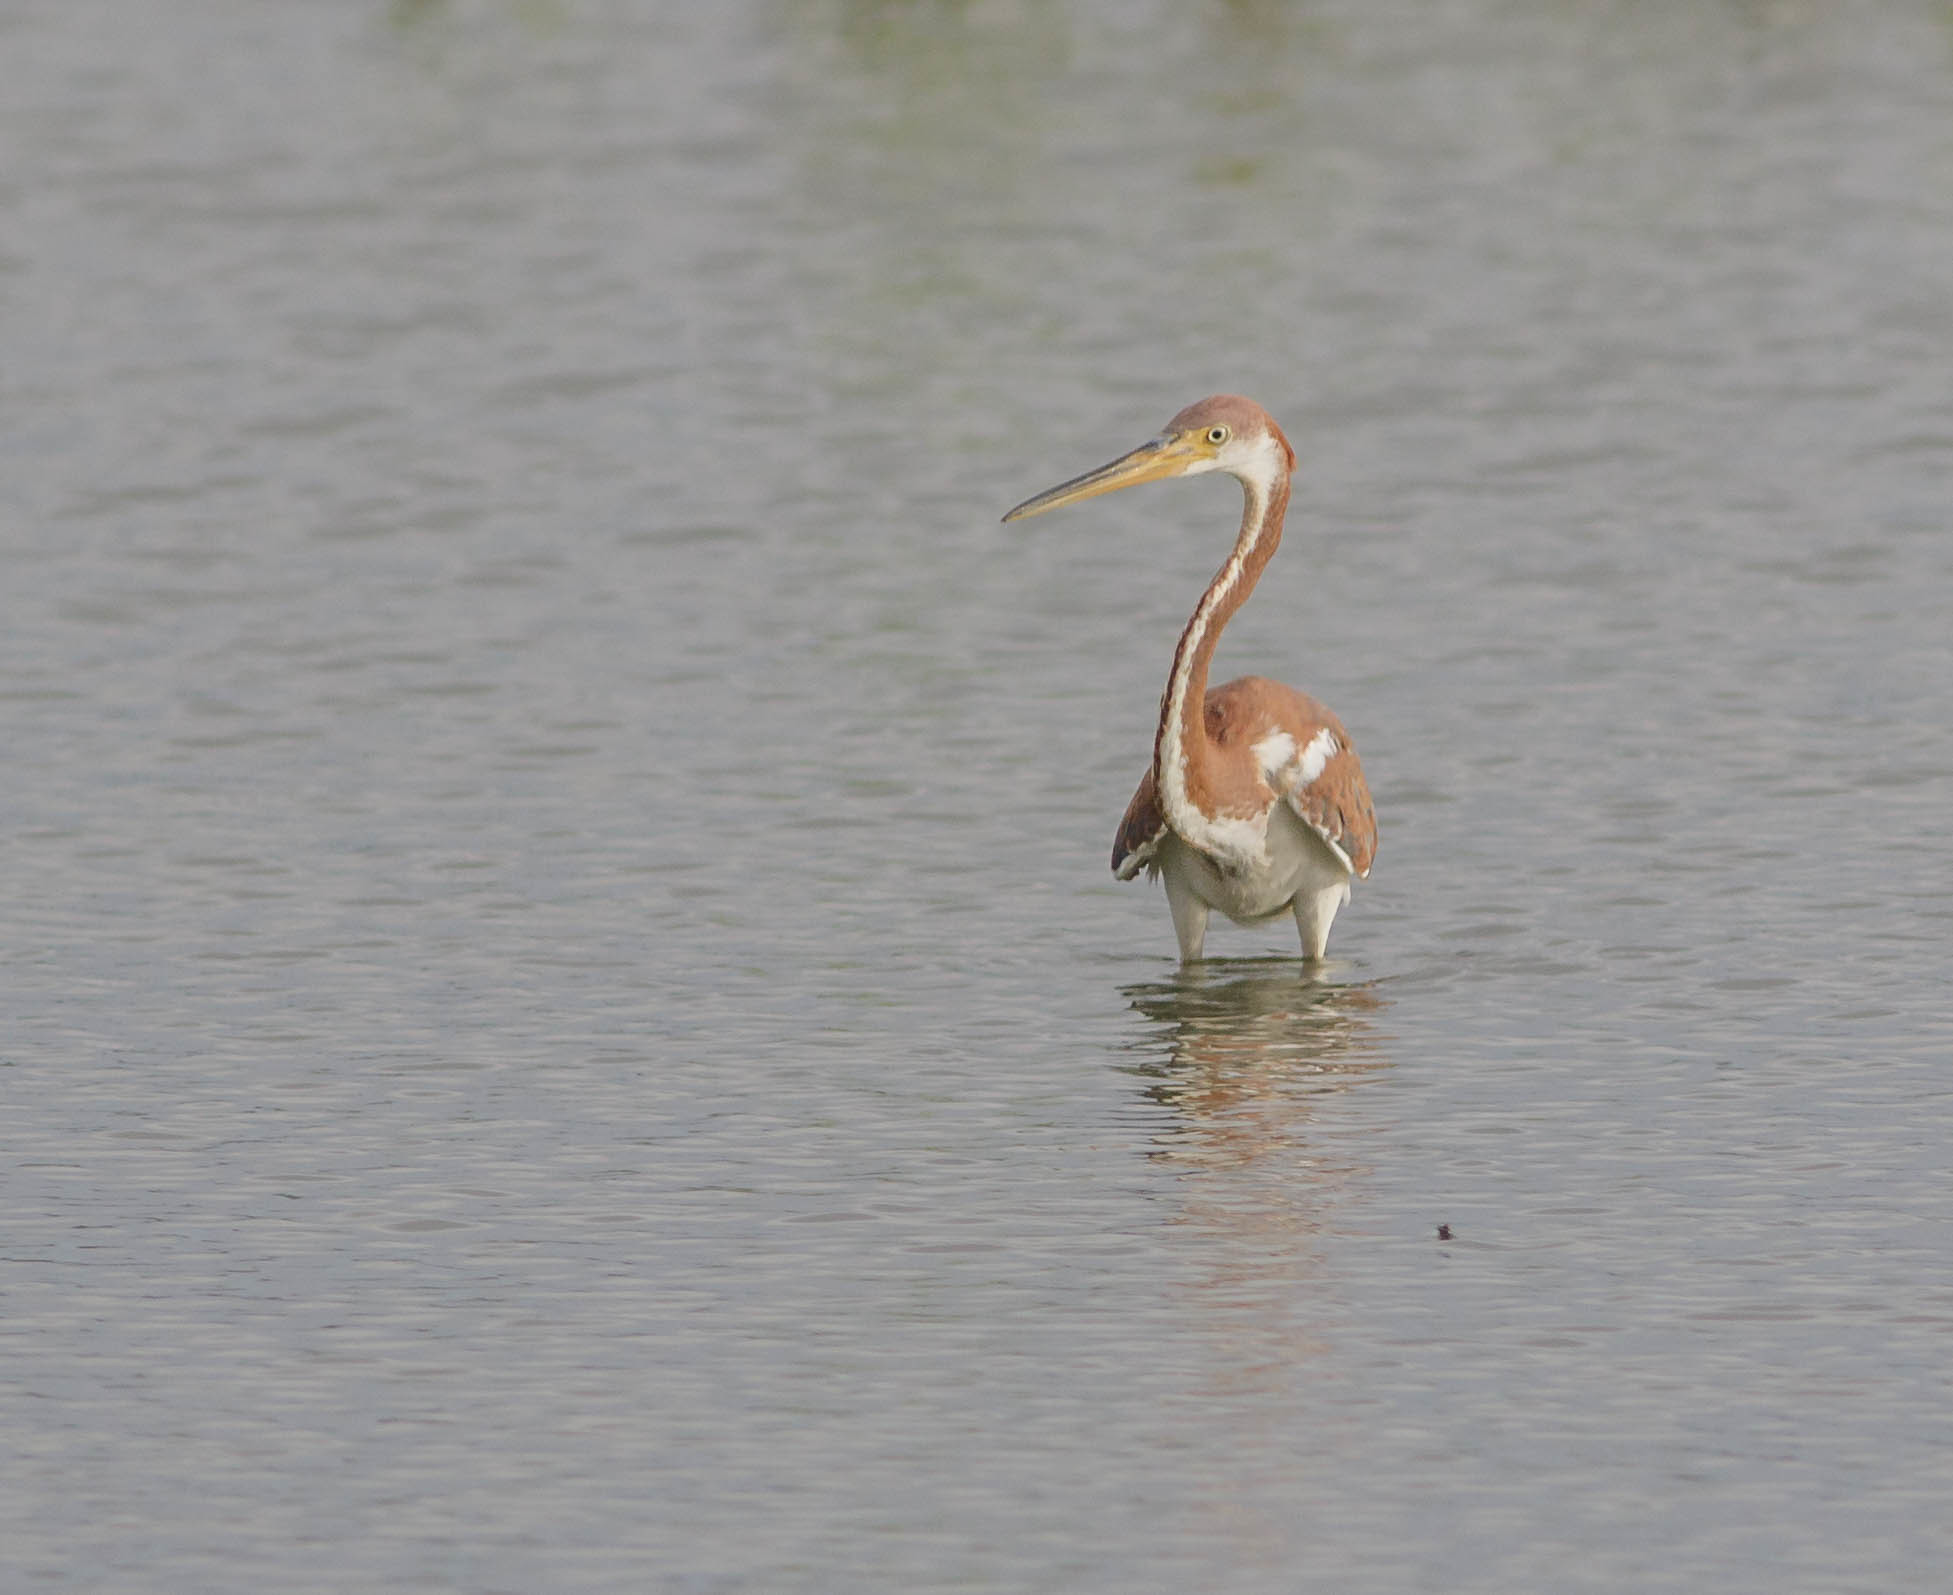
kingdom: Animalia
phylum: Chordata
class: Aves
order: Pelecaniformes
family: Ardeidae
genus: Egretta
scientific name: Egretta tricolor
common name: Tricolored heron
